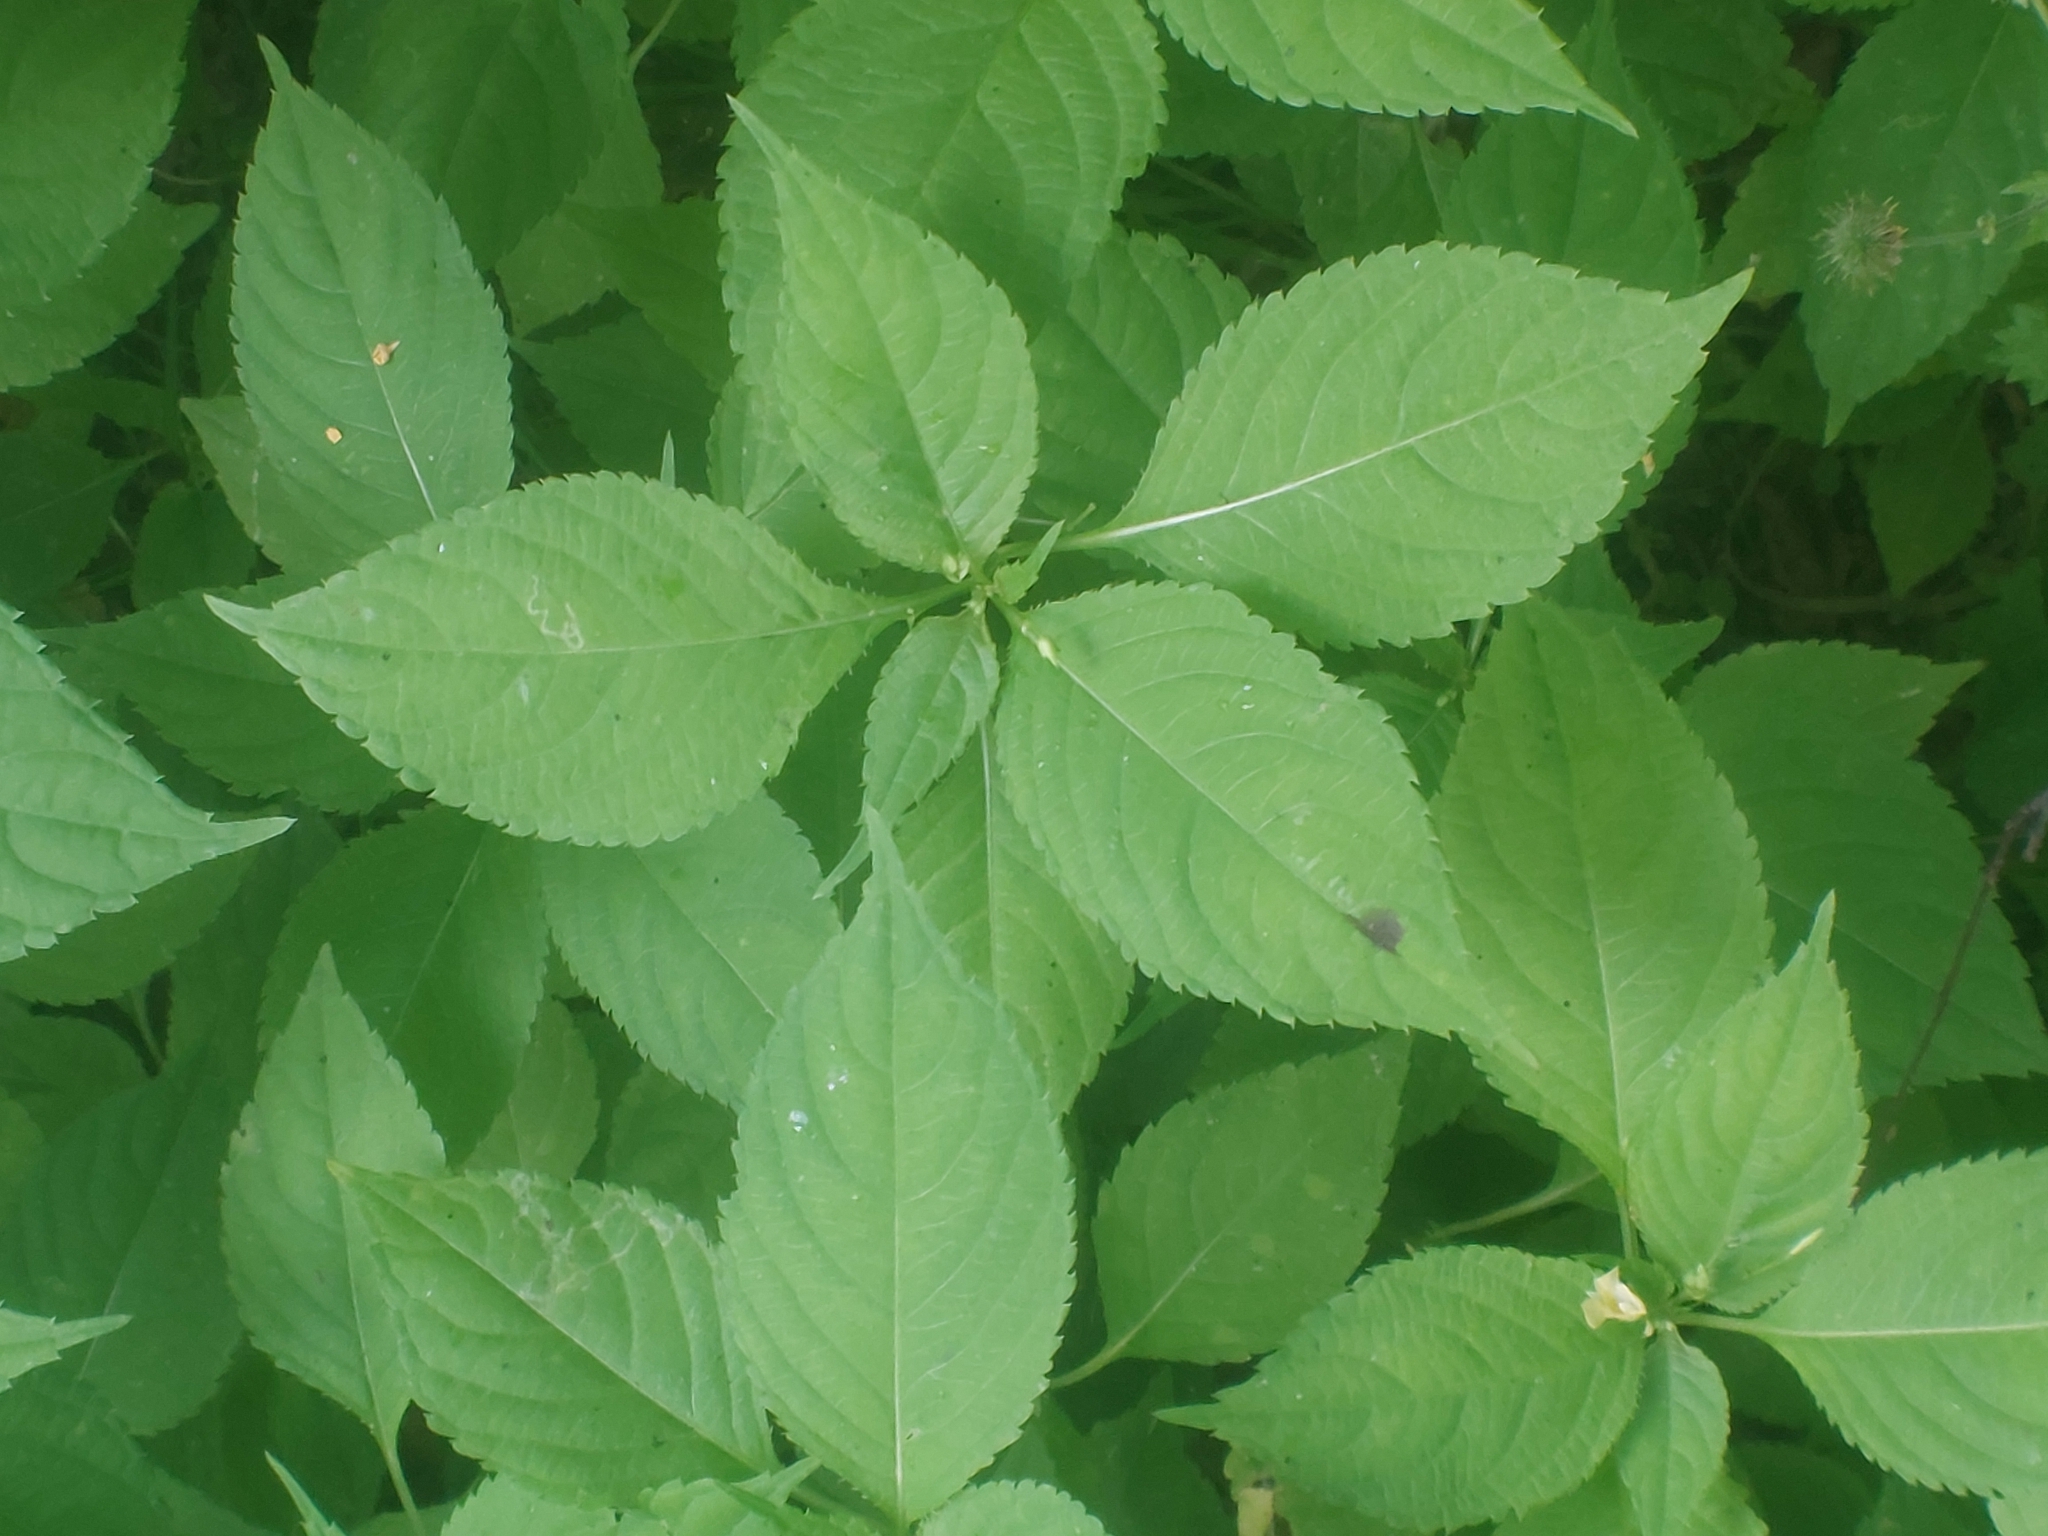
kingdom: Plantae
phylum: Tracheophyta
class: Magnoliopsida
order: Ericales
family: Balsaminaceae
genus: Impatiens
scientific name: Impatiens parviflora
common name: Small balsam
